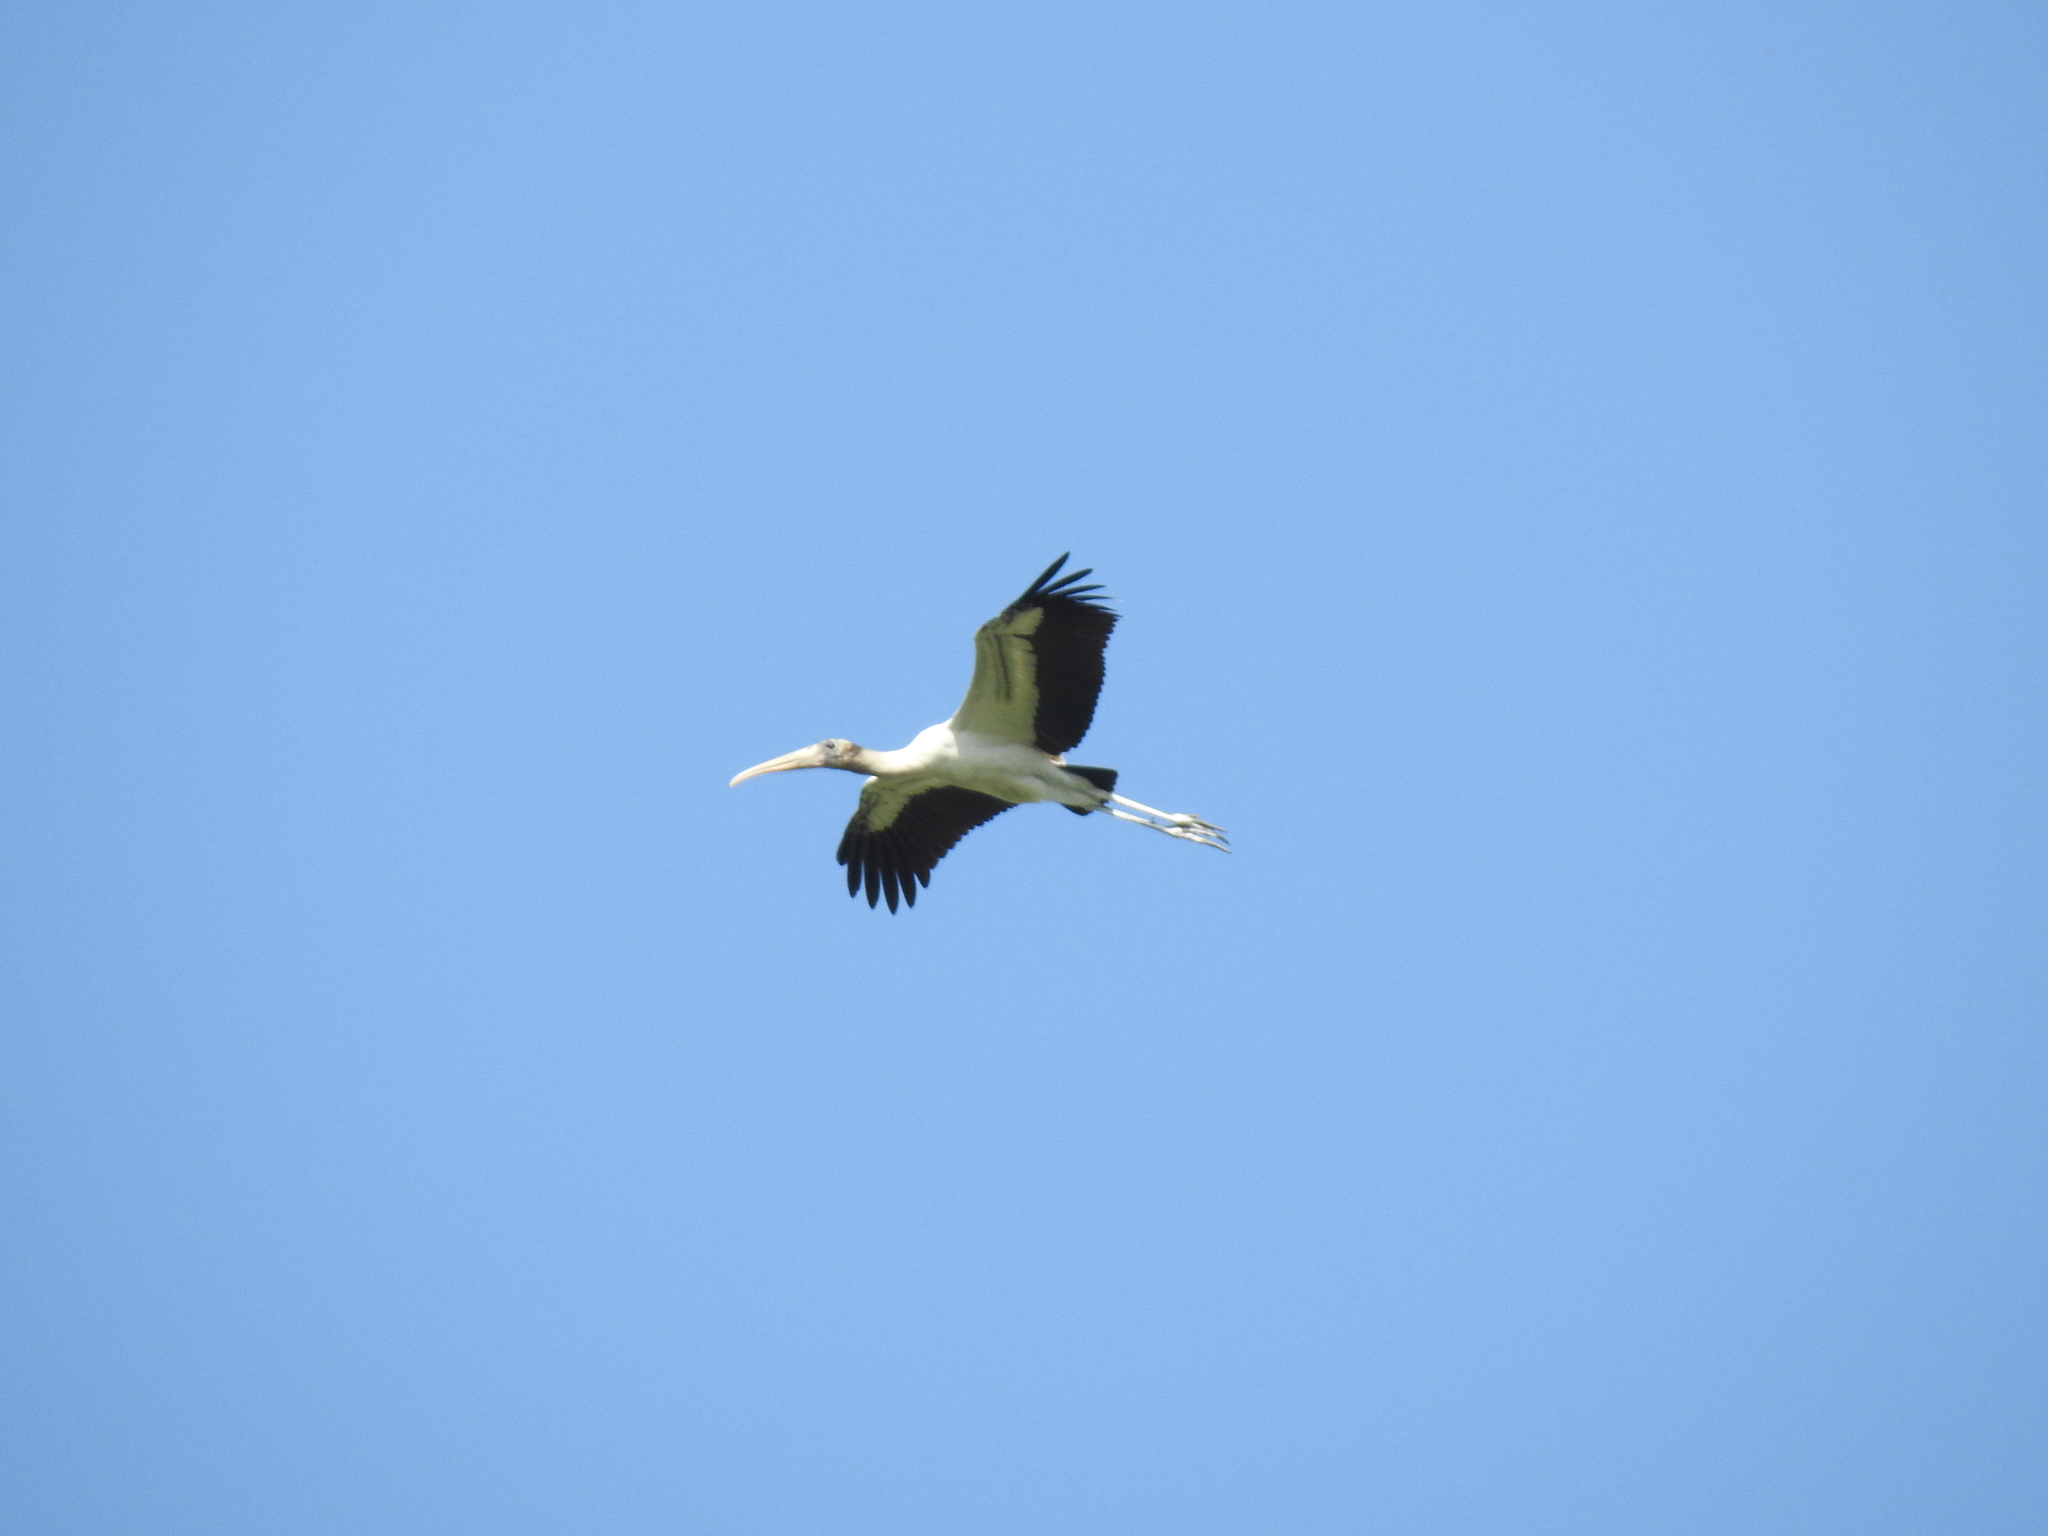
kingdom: Animalia
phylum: Chordata
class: Aves
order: Ciconiiformes
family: Ciconiidae
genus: Mycteria
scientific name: Mycteria americana
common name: Wood stork
